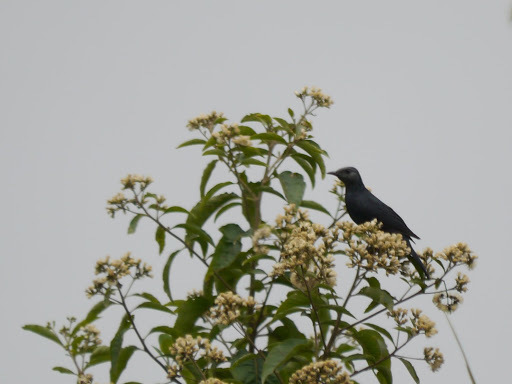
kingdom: Animalia
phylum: Chordata
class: Aves
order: Passeriformes
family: Sturnidae
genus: Onychognathus
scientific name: Onychognathus walleri
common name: Waller's starling
